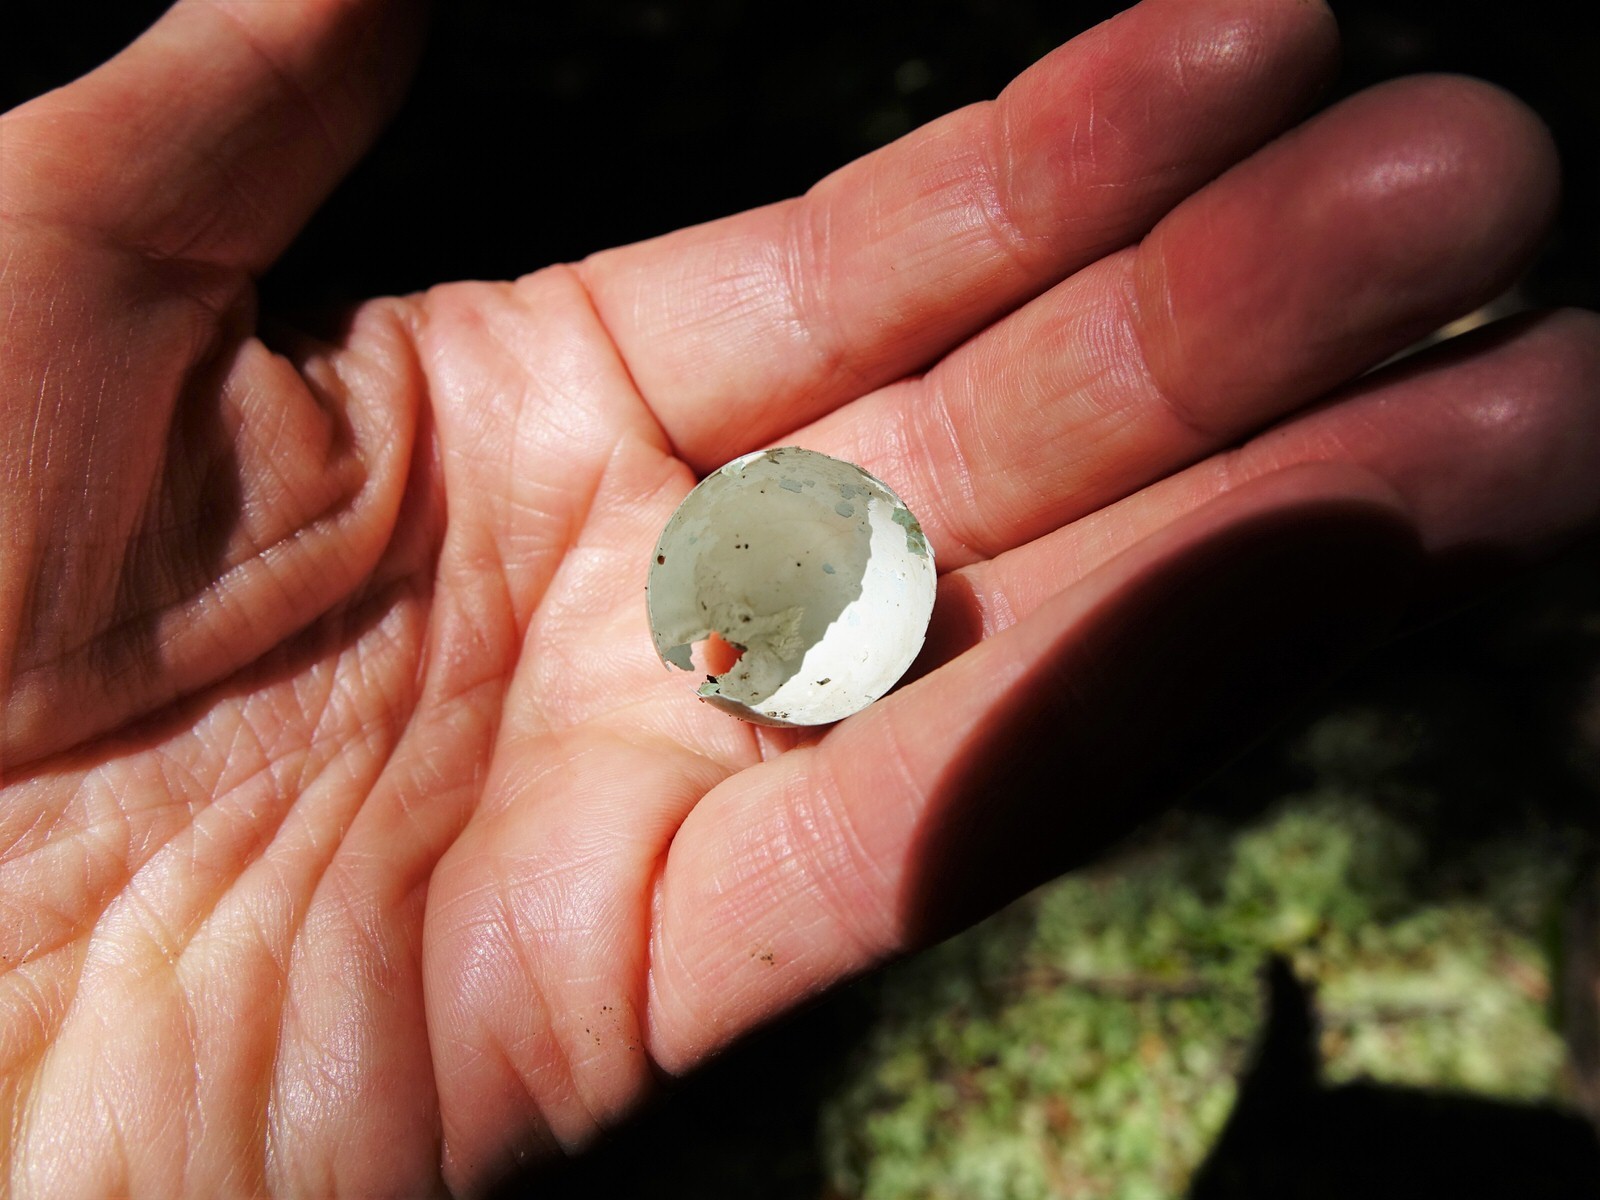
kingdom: Animalia
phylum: Chordata
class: Aves
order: Passeriformes
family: Turdidae
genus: Turdus
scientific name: Turdus merula
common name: Common blackbird
